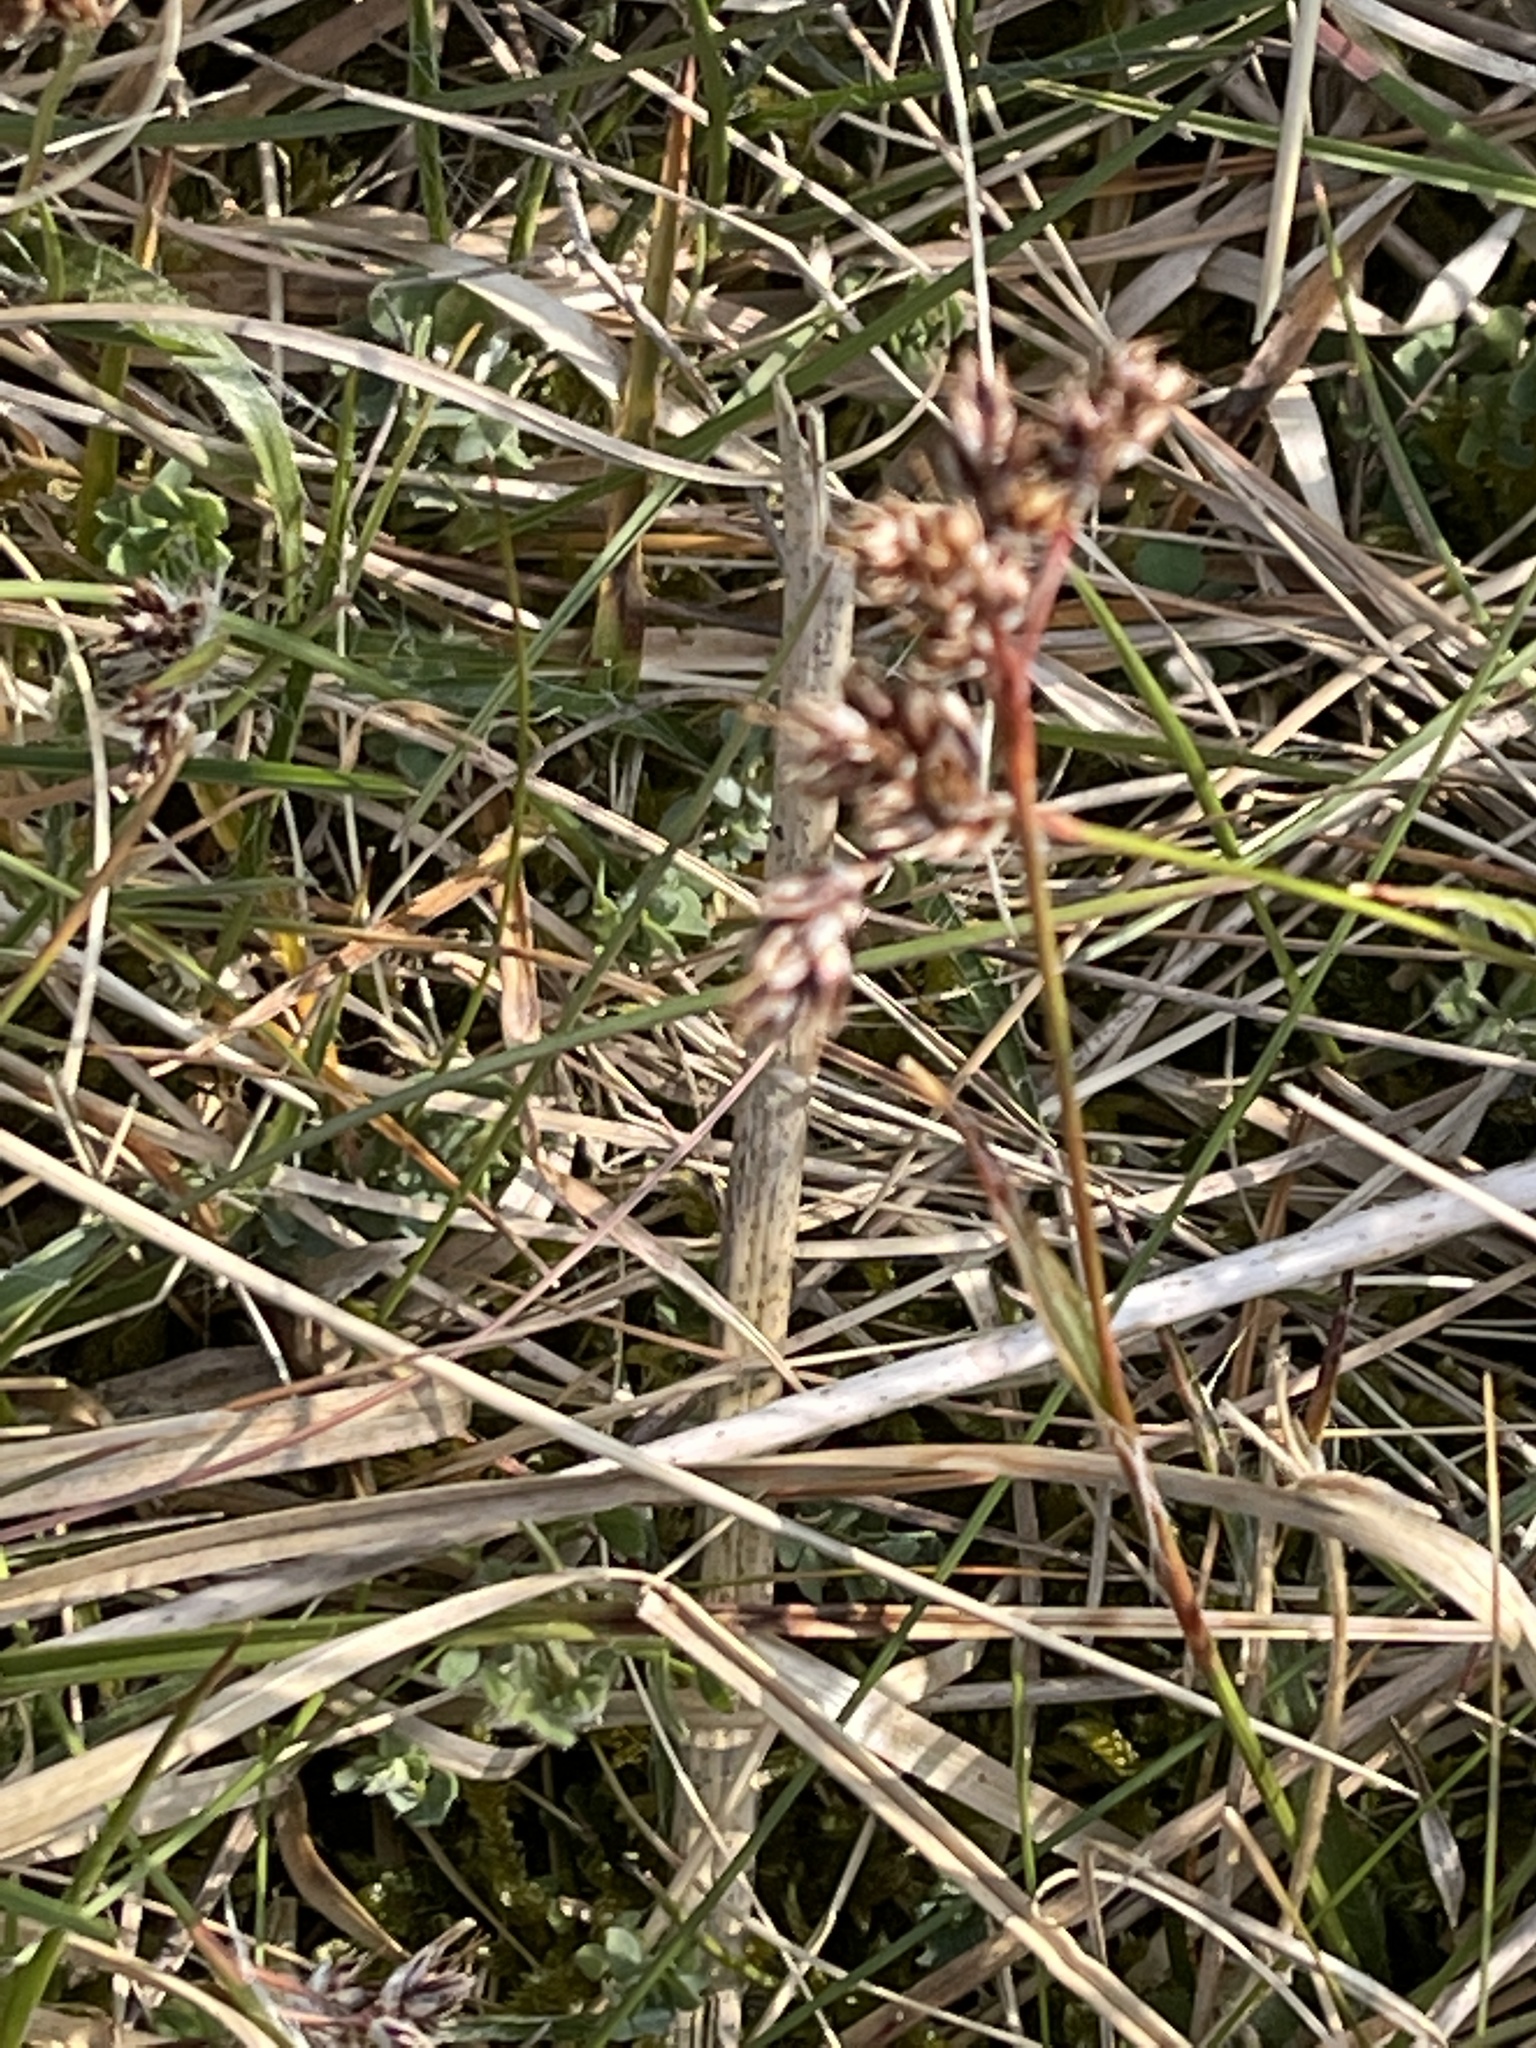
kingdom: Plantae
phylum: Tracheophyta
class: Liliopsida
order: Poales
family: Juncaceae
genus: Luzula
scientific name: Luzula campestris
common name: Field wood-rush
